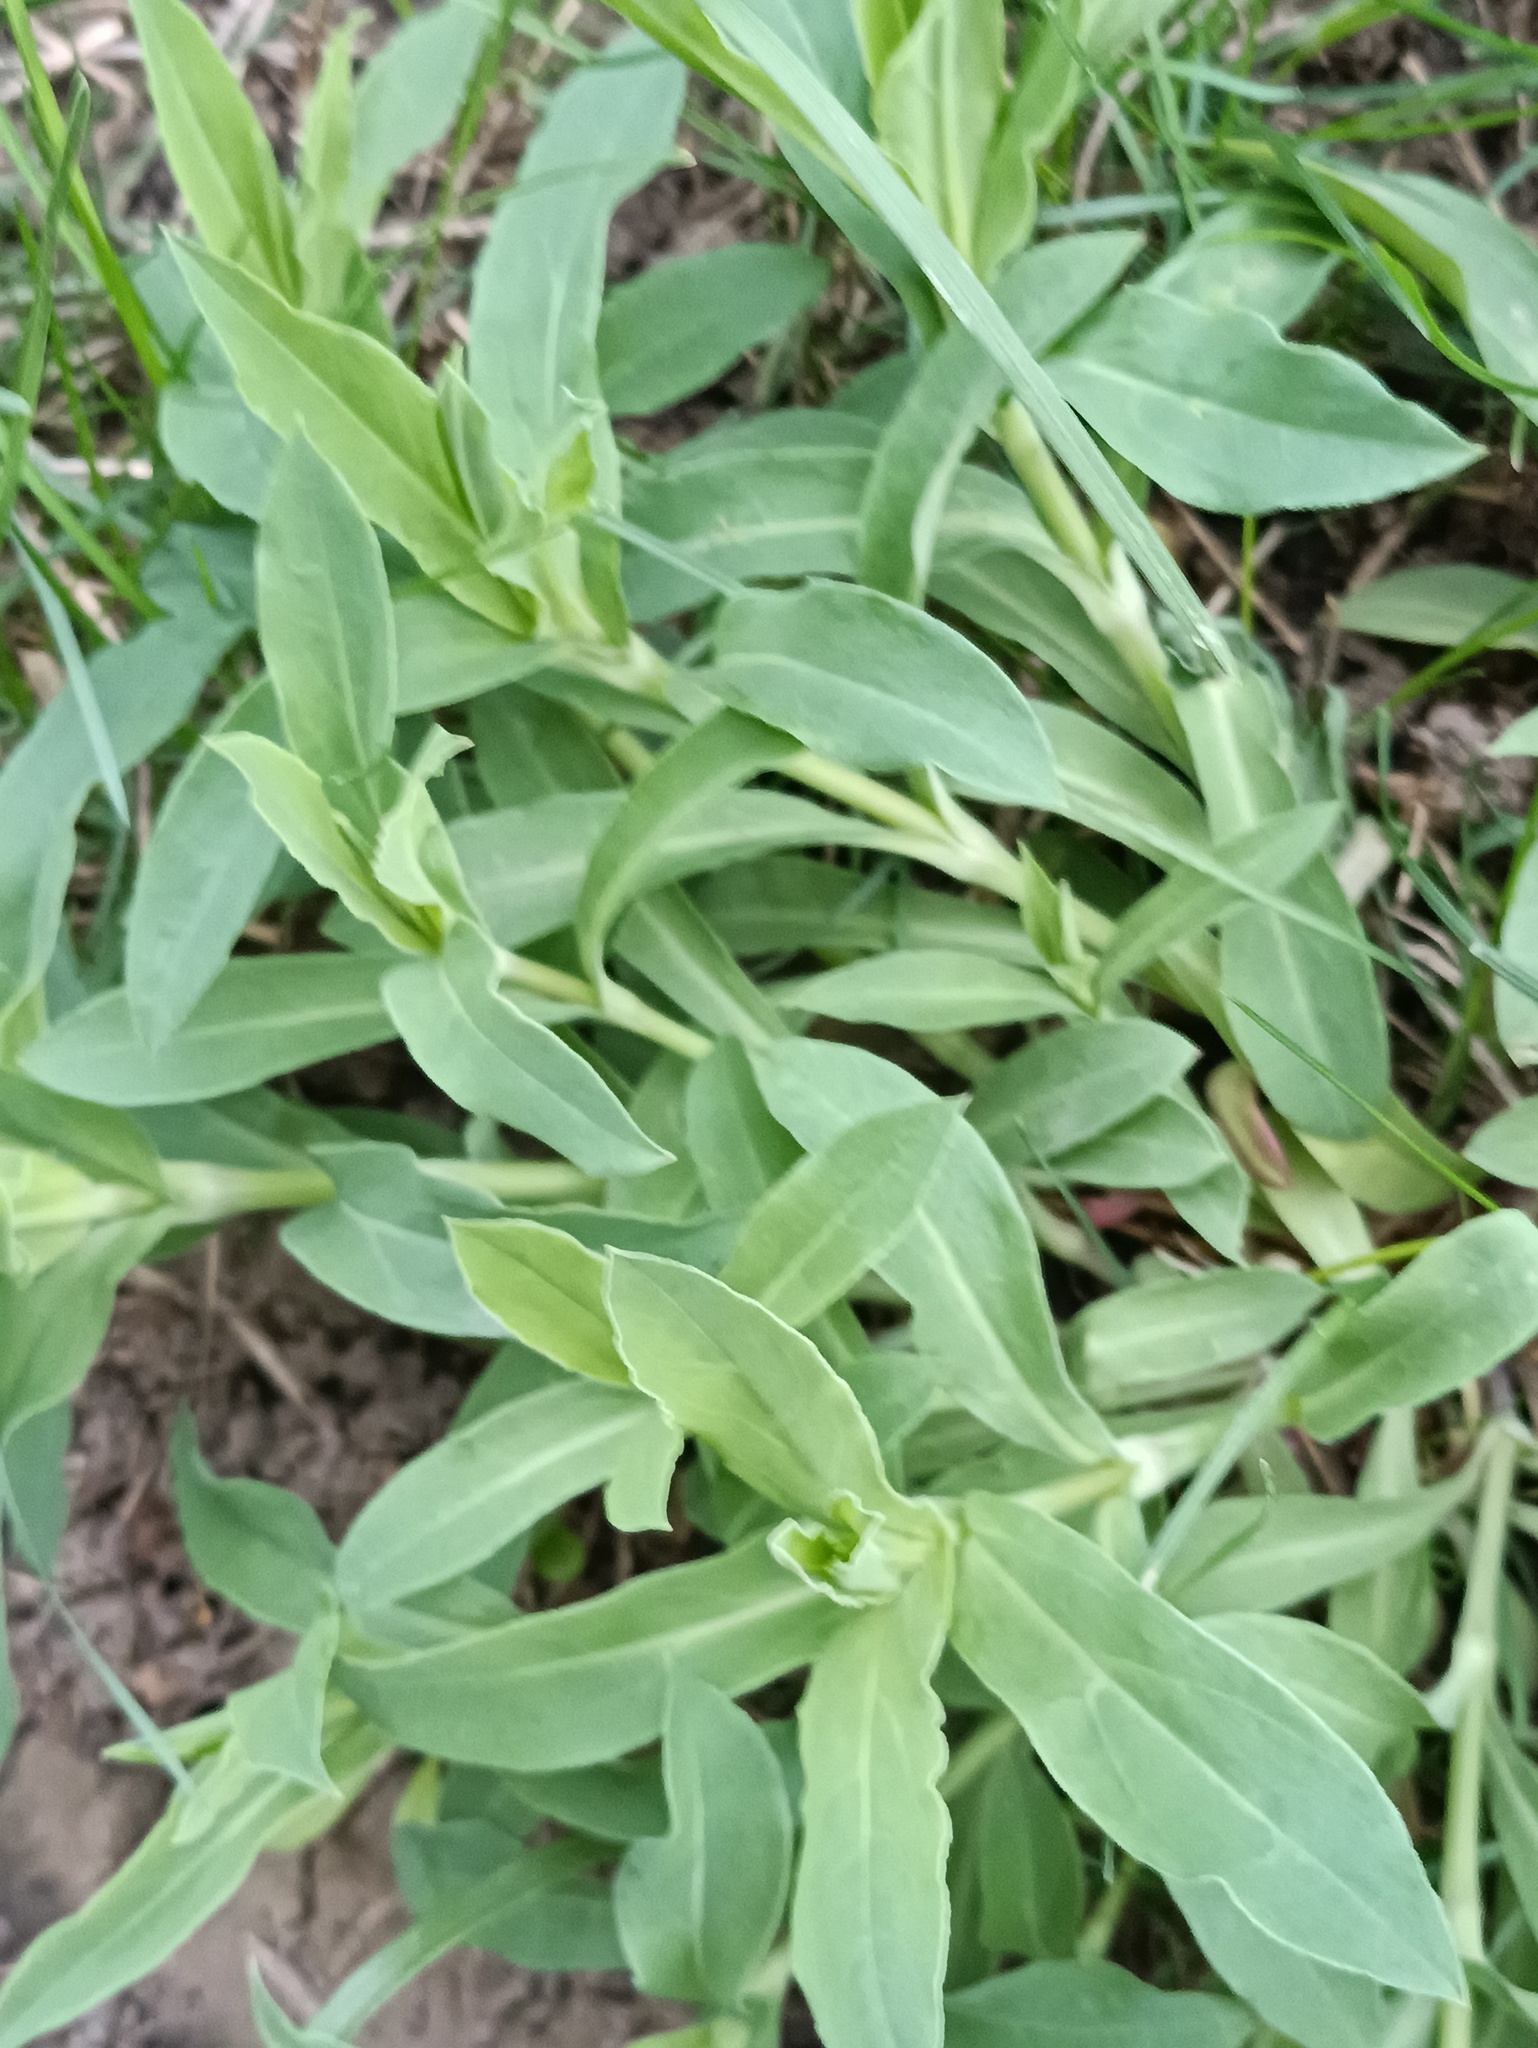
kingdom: Plantae
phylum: Tracheophyta
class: Magnoliopsida
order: Caryophyllales
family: Caryophyllaceae
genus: Silene
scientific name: Silene vulgaris
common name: Bladder campion
